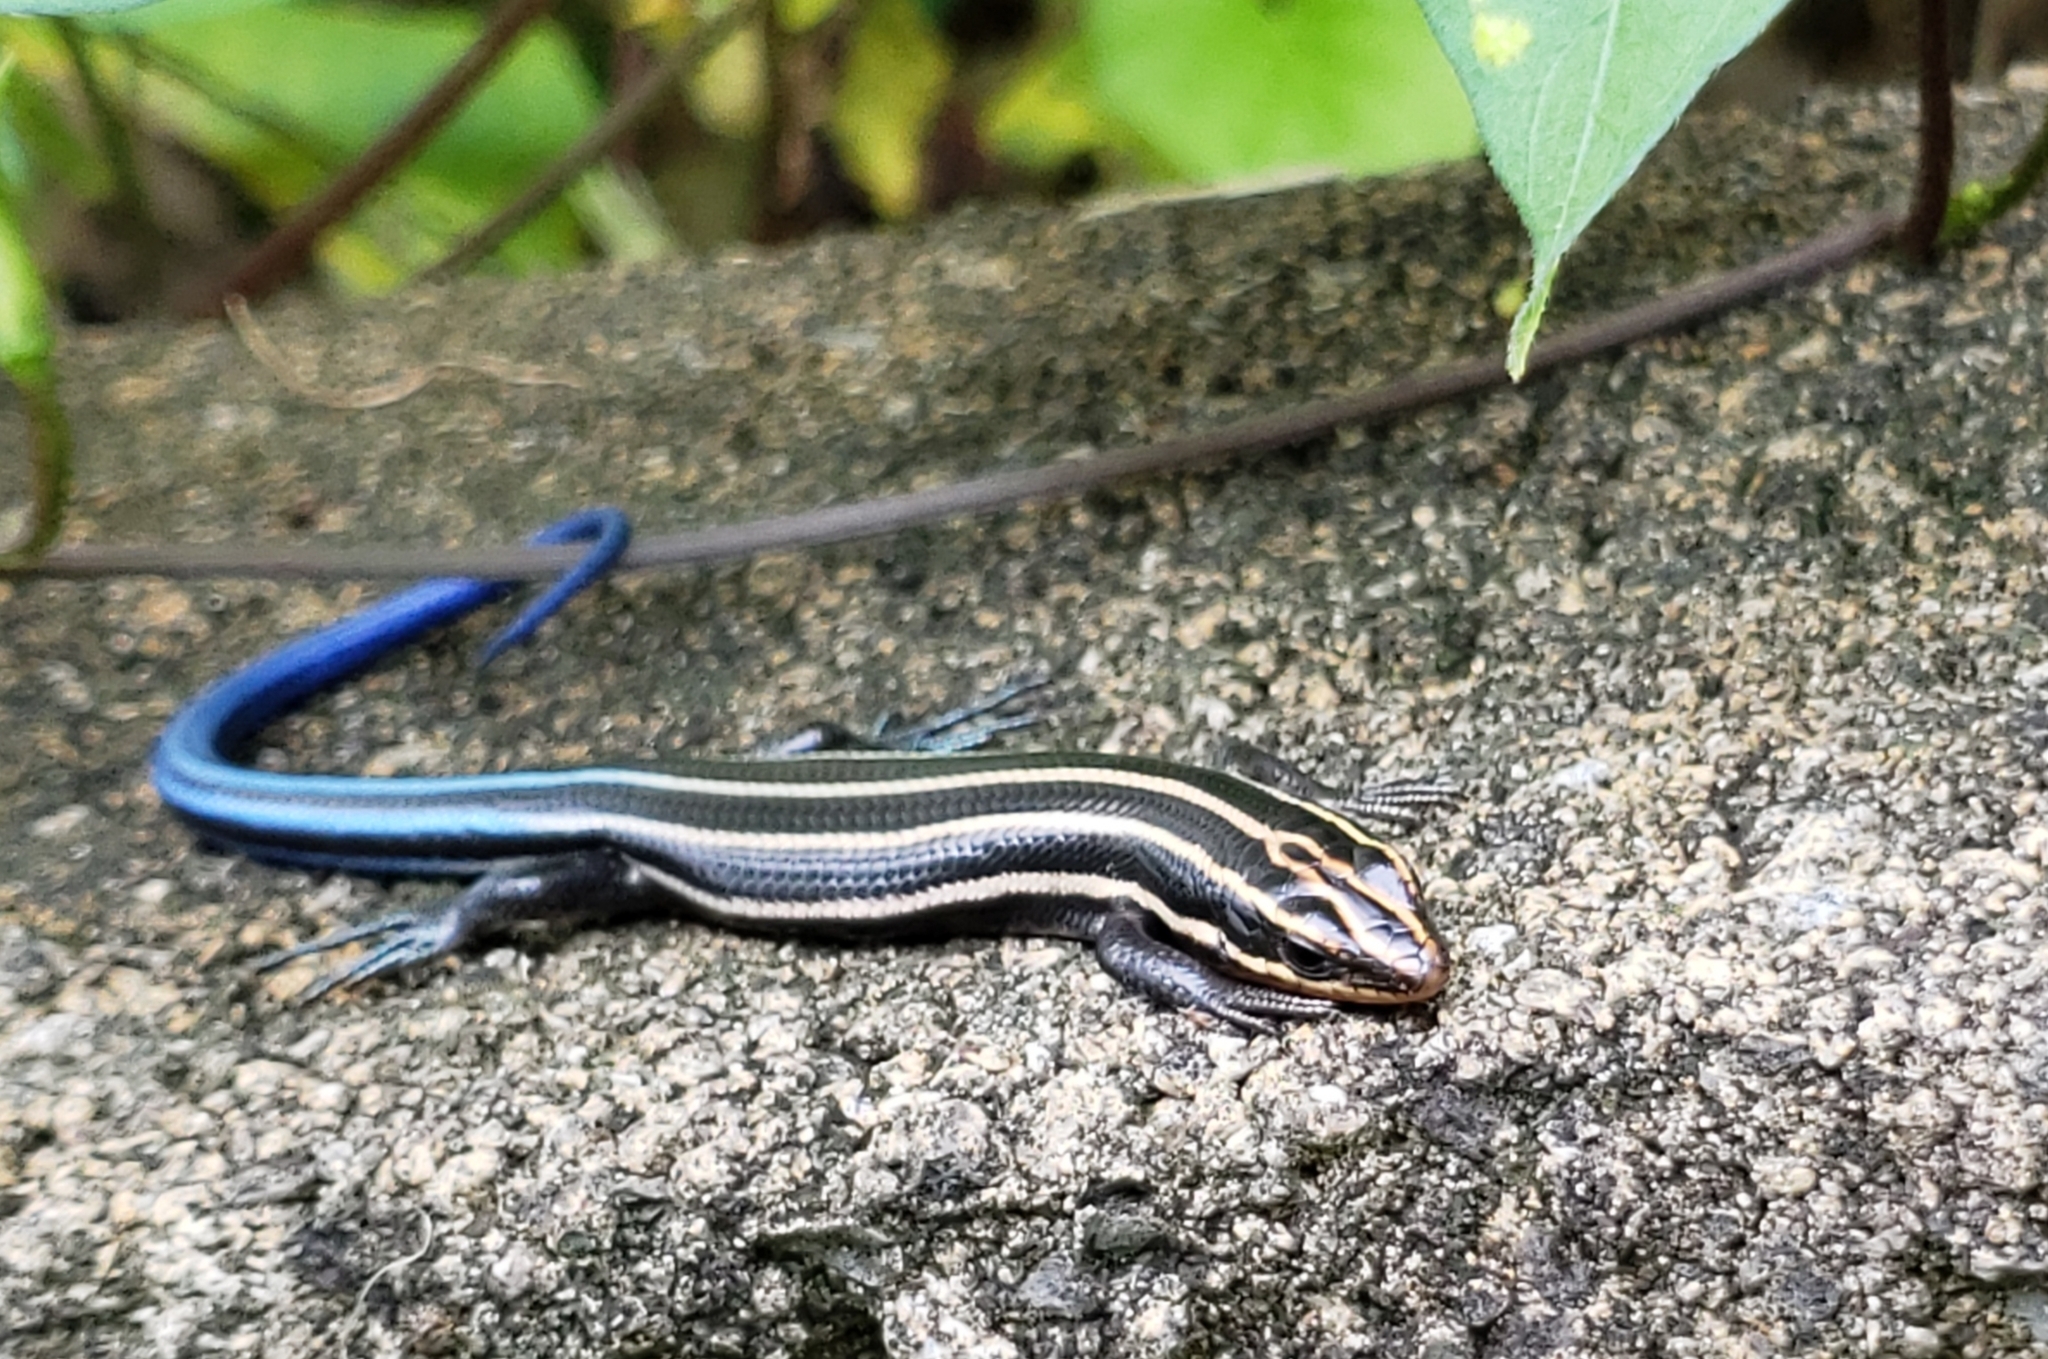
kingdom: Animalia
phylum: Chordata
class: Squamata
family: Scincidae
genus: Plestiodon
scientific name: Plestiodon fasciatus
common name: Five-lined skink
